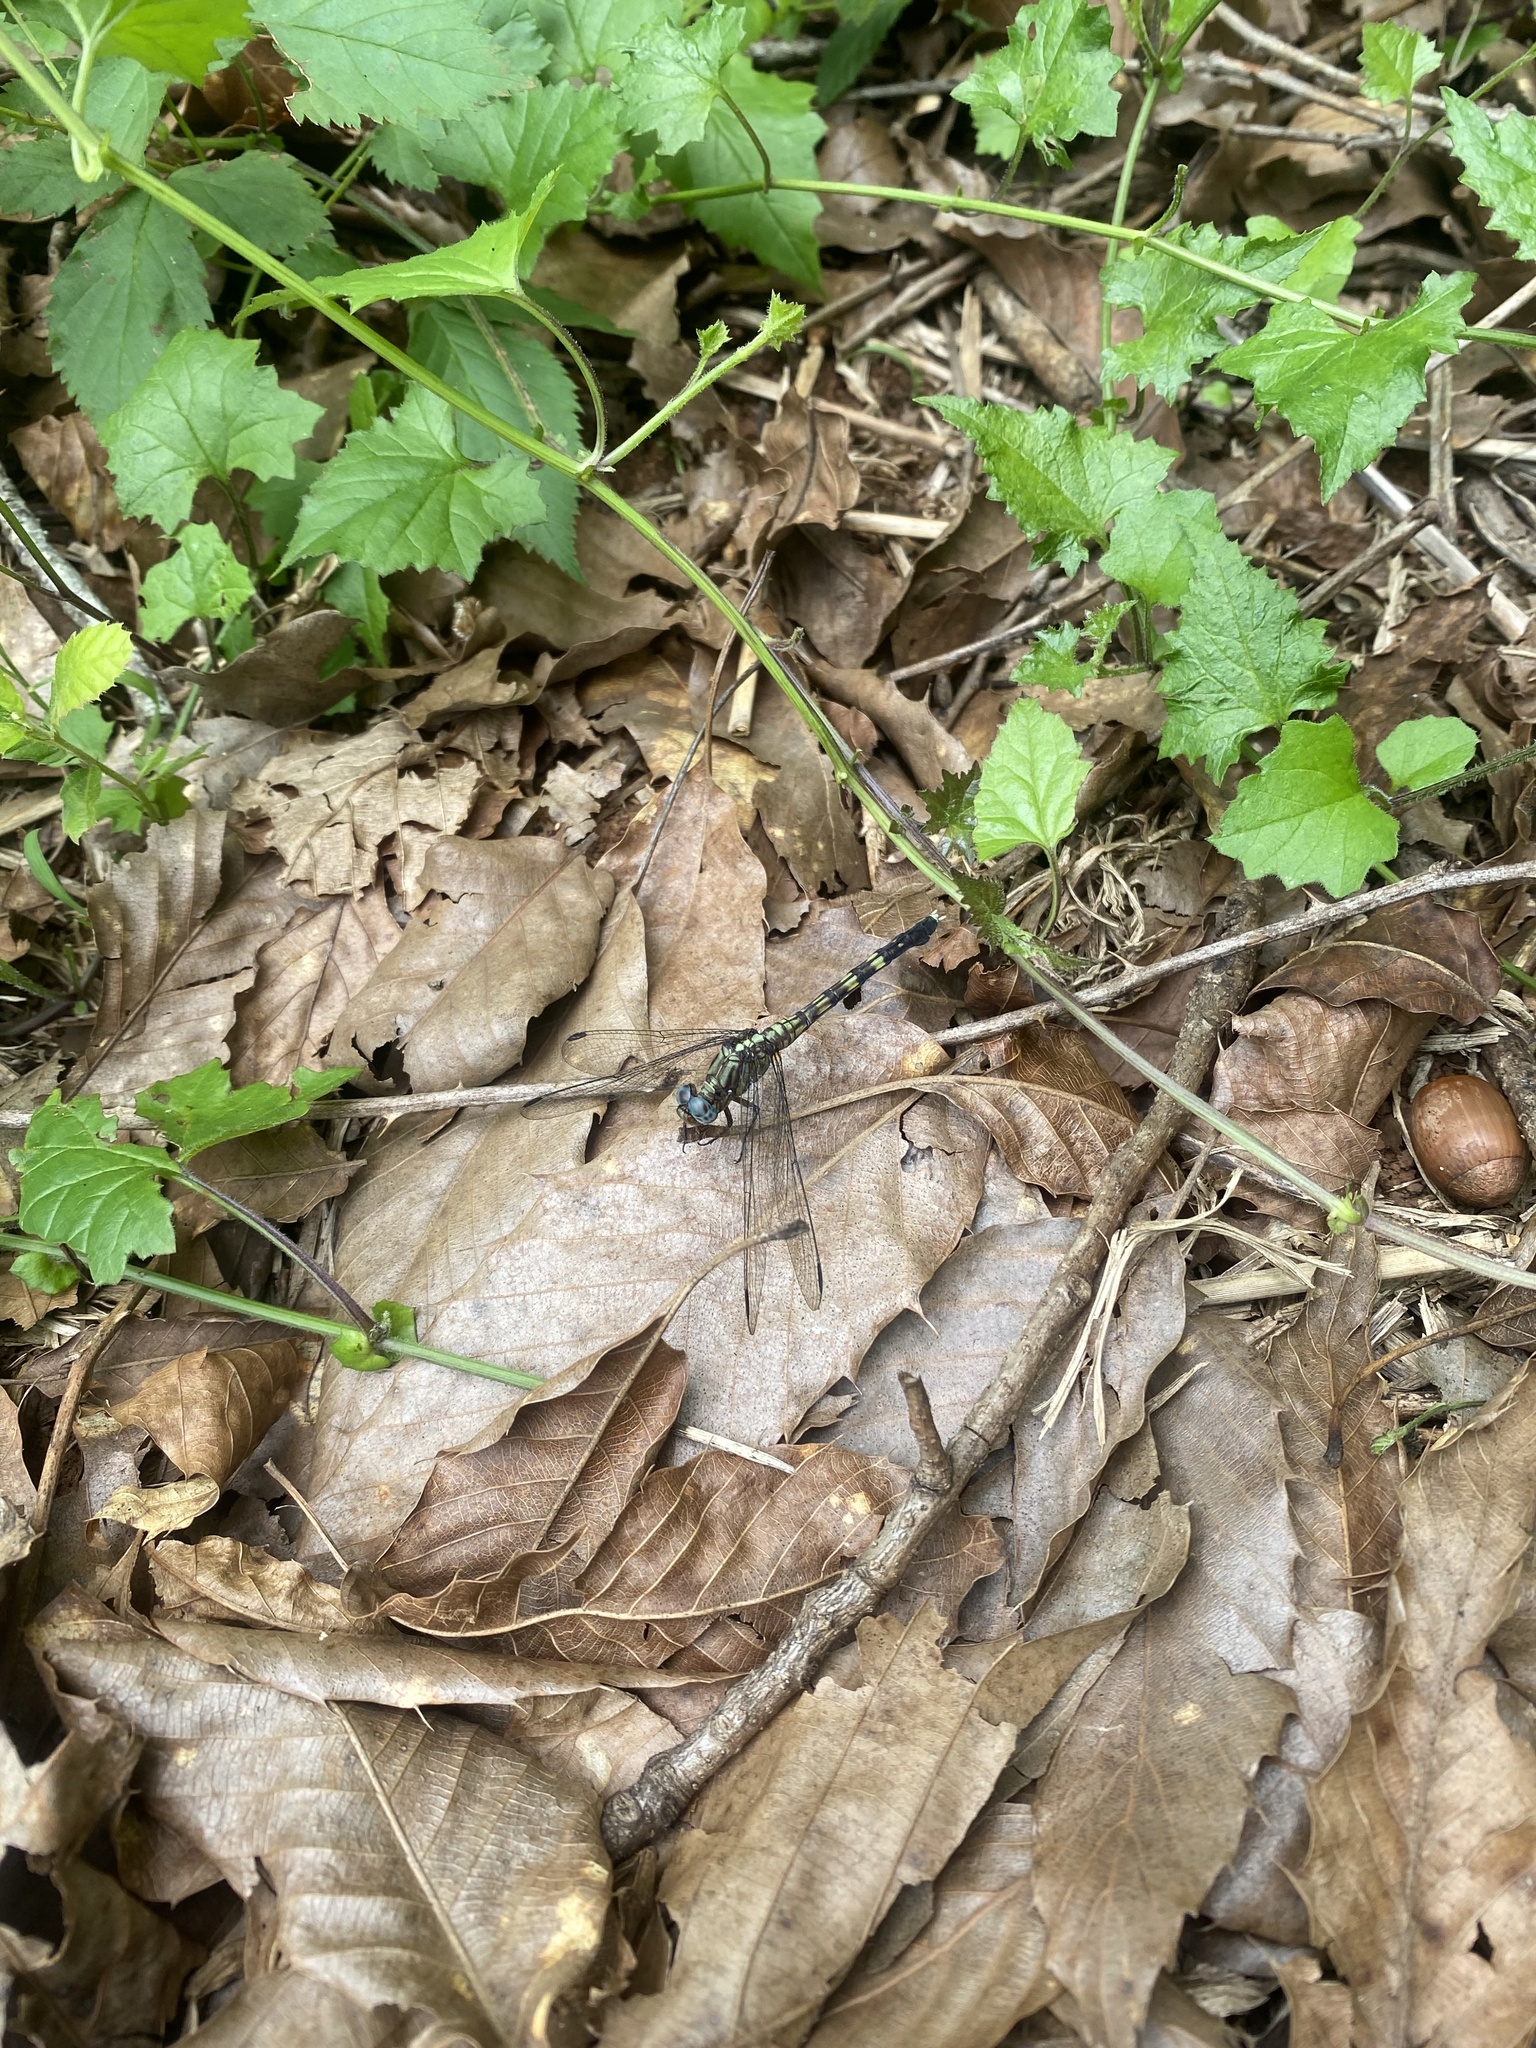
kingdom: Animalia
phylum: Arthropoda
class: Insecta
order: Odonata
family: Libellulidae
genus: Orthetrum
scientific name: Orthetrum julia
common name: Julia skimmer
